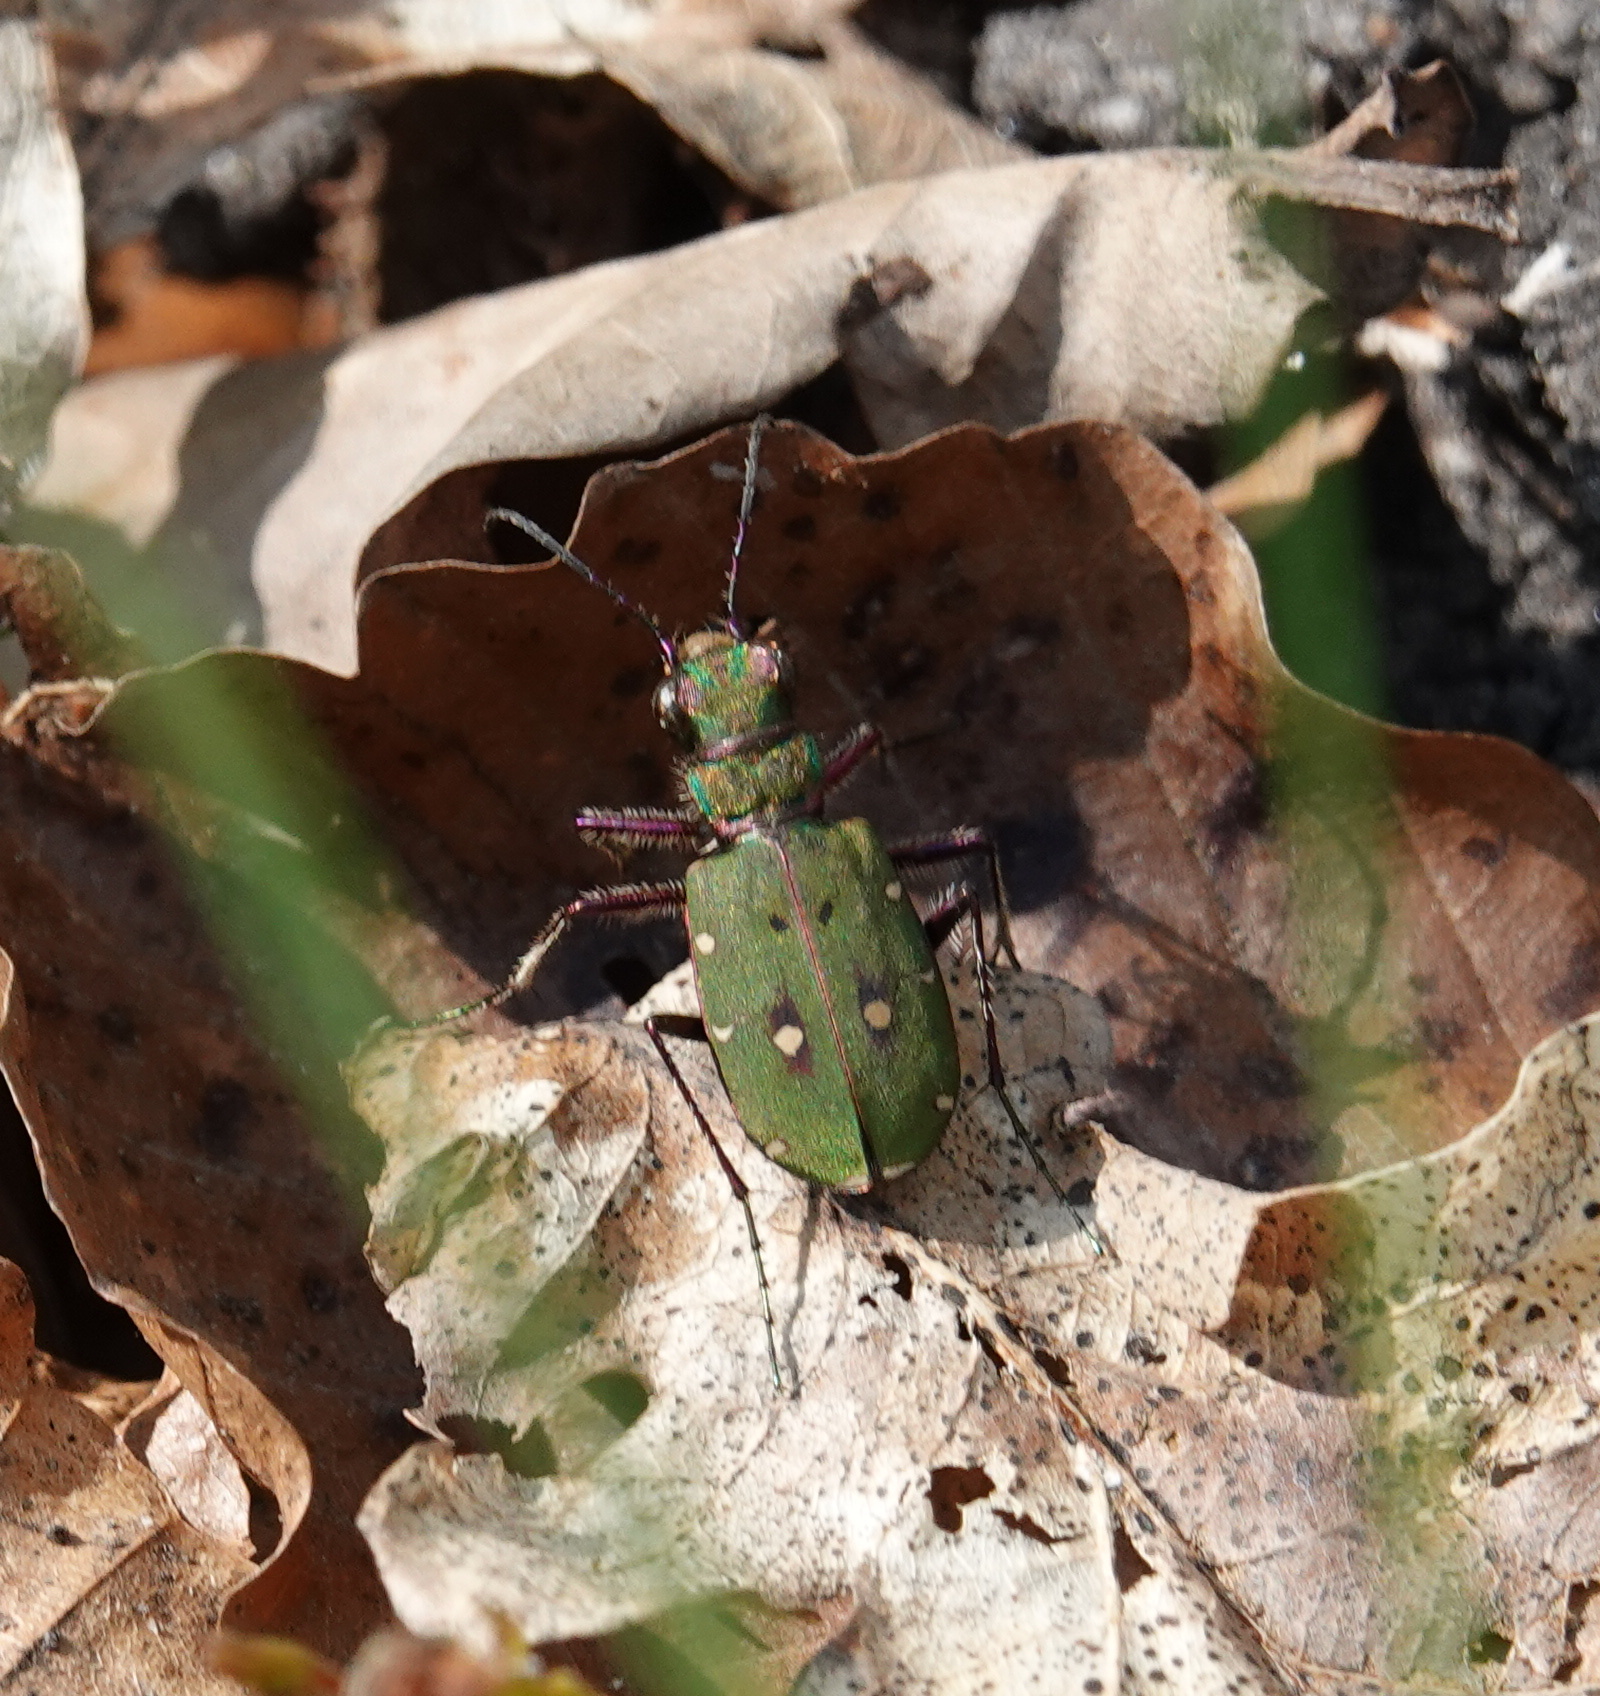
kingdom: Animalia
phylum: Arthropoda
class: Insecta
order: Coleoptera
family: Carabidae
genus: Cicindela
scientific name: Cicindela campestris
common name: Common tiger beetle
